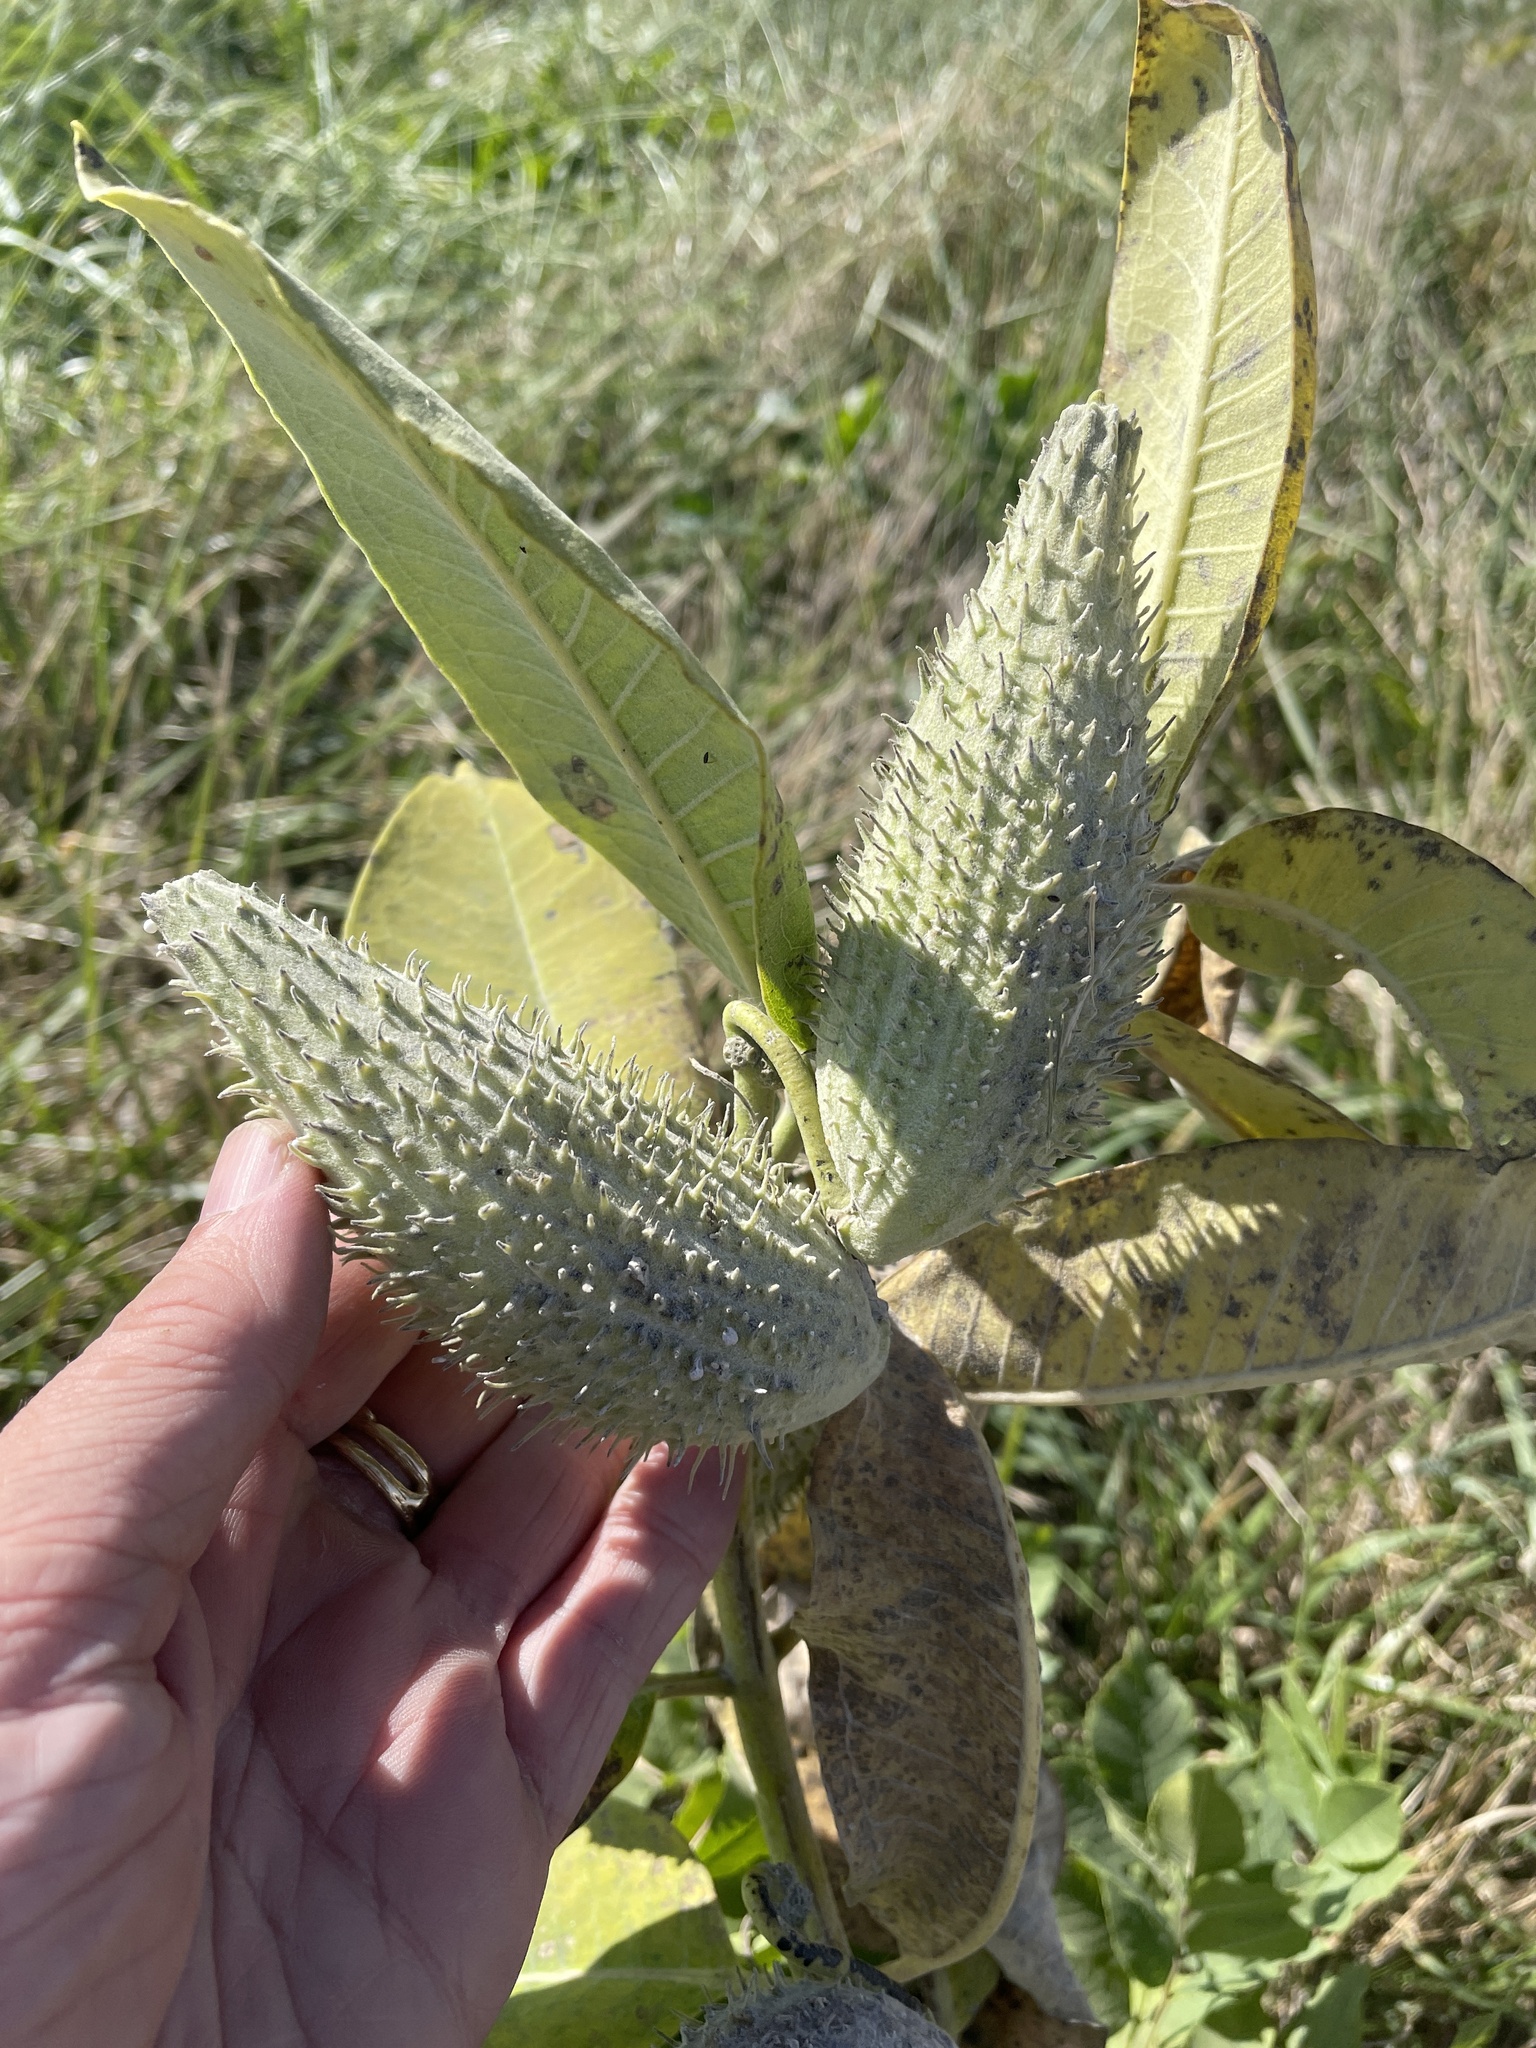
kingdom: Plantae
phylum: Tracheophyta
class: Magnoliopsida
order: Gentianales
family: Apocynaceae
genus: Asclepias
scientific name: Asclepias syriaca
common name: Common milkweed
